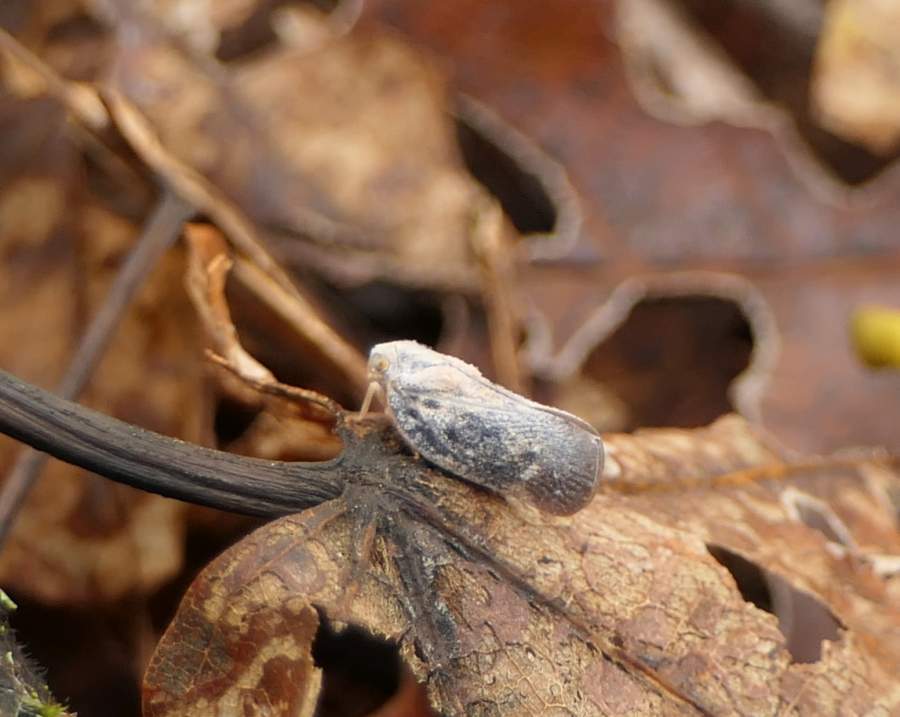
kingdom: Animalia
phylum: Arthropoda
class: Insecta
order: Hemiptera
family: Flatidae
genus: Metcalfa
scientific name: Metcalfa pruinosa
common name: Citrus flatid planthopper
